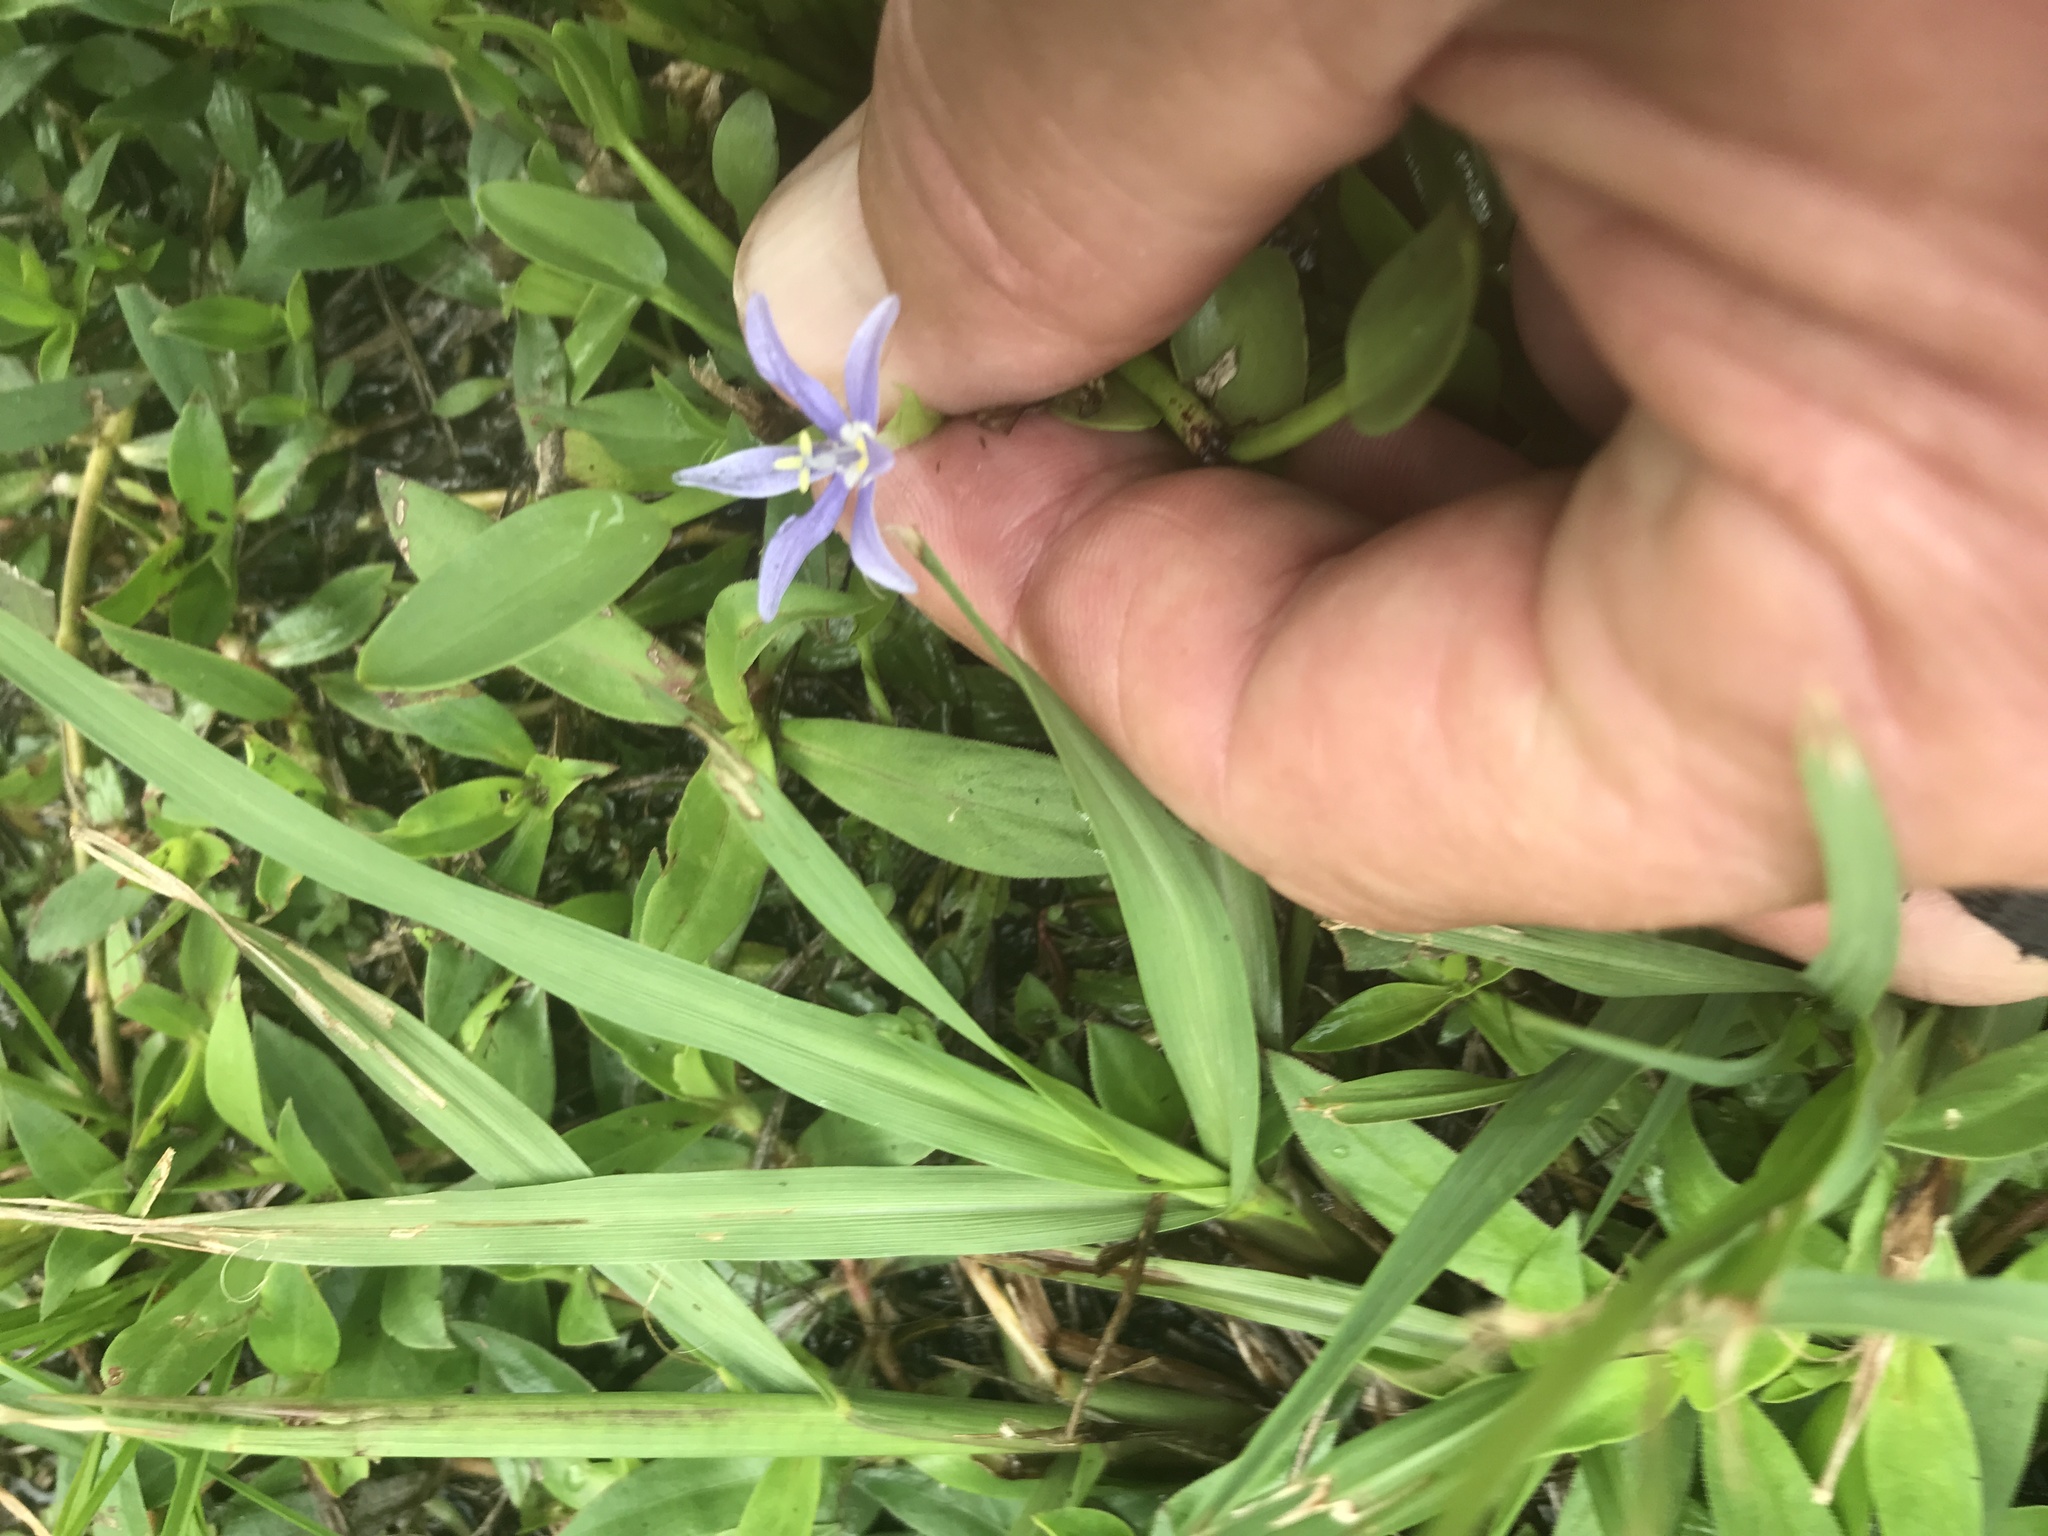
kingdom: Plantae
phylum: Tracheophyta
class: Liliopsida
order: Commelinales
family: Pontederiaceae
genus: Heteranthera
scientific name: Heteranthera limosa
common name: Blue mud-plantain
